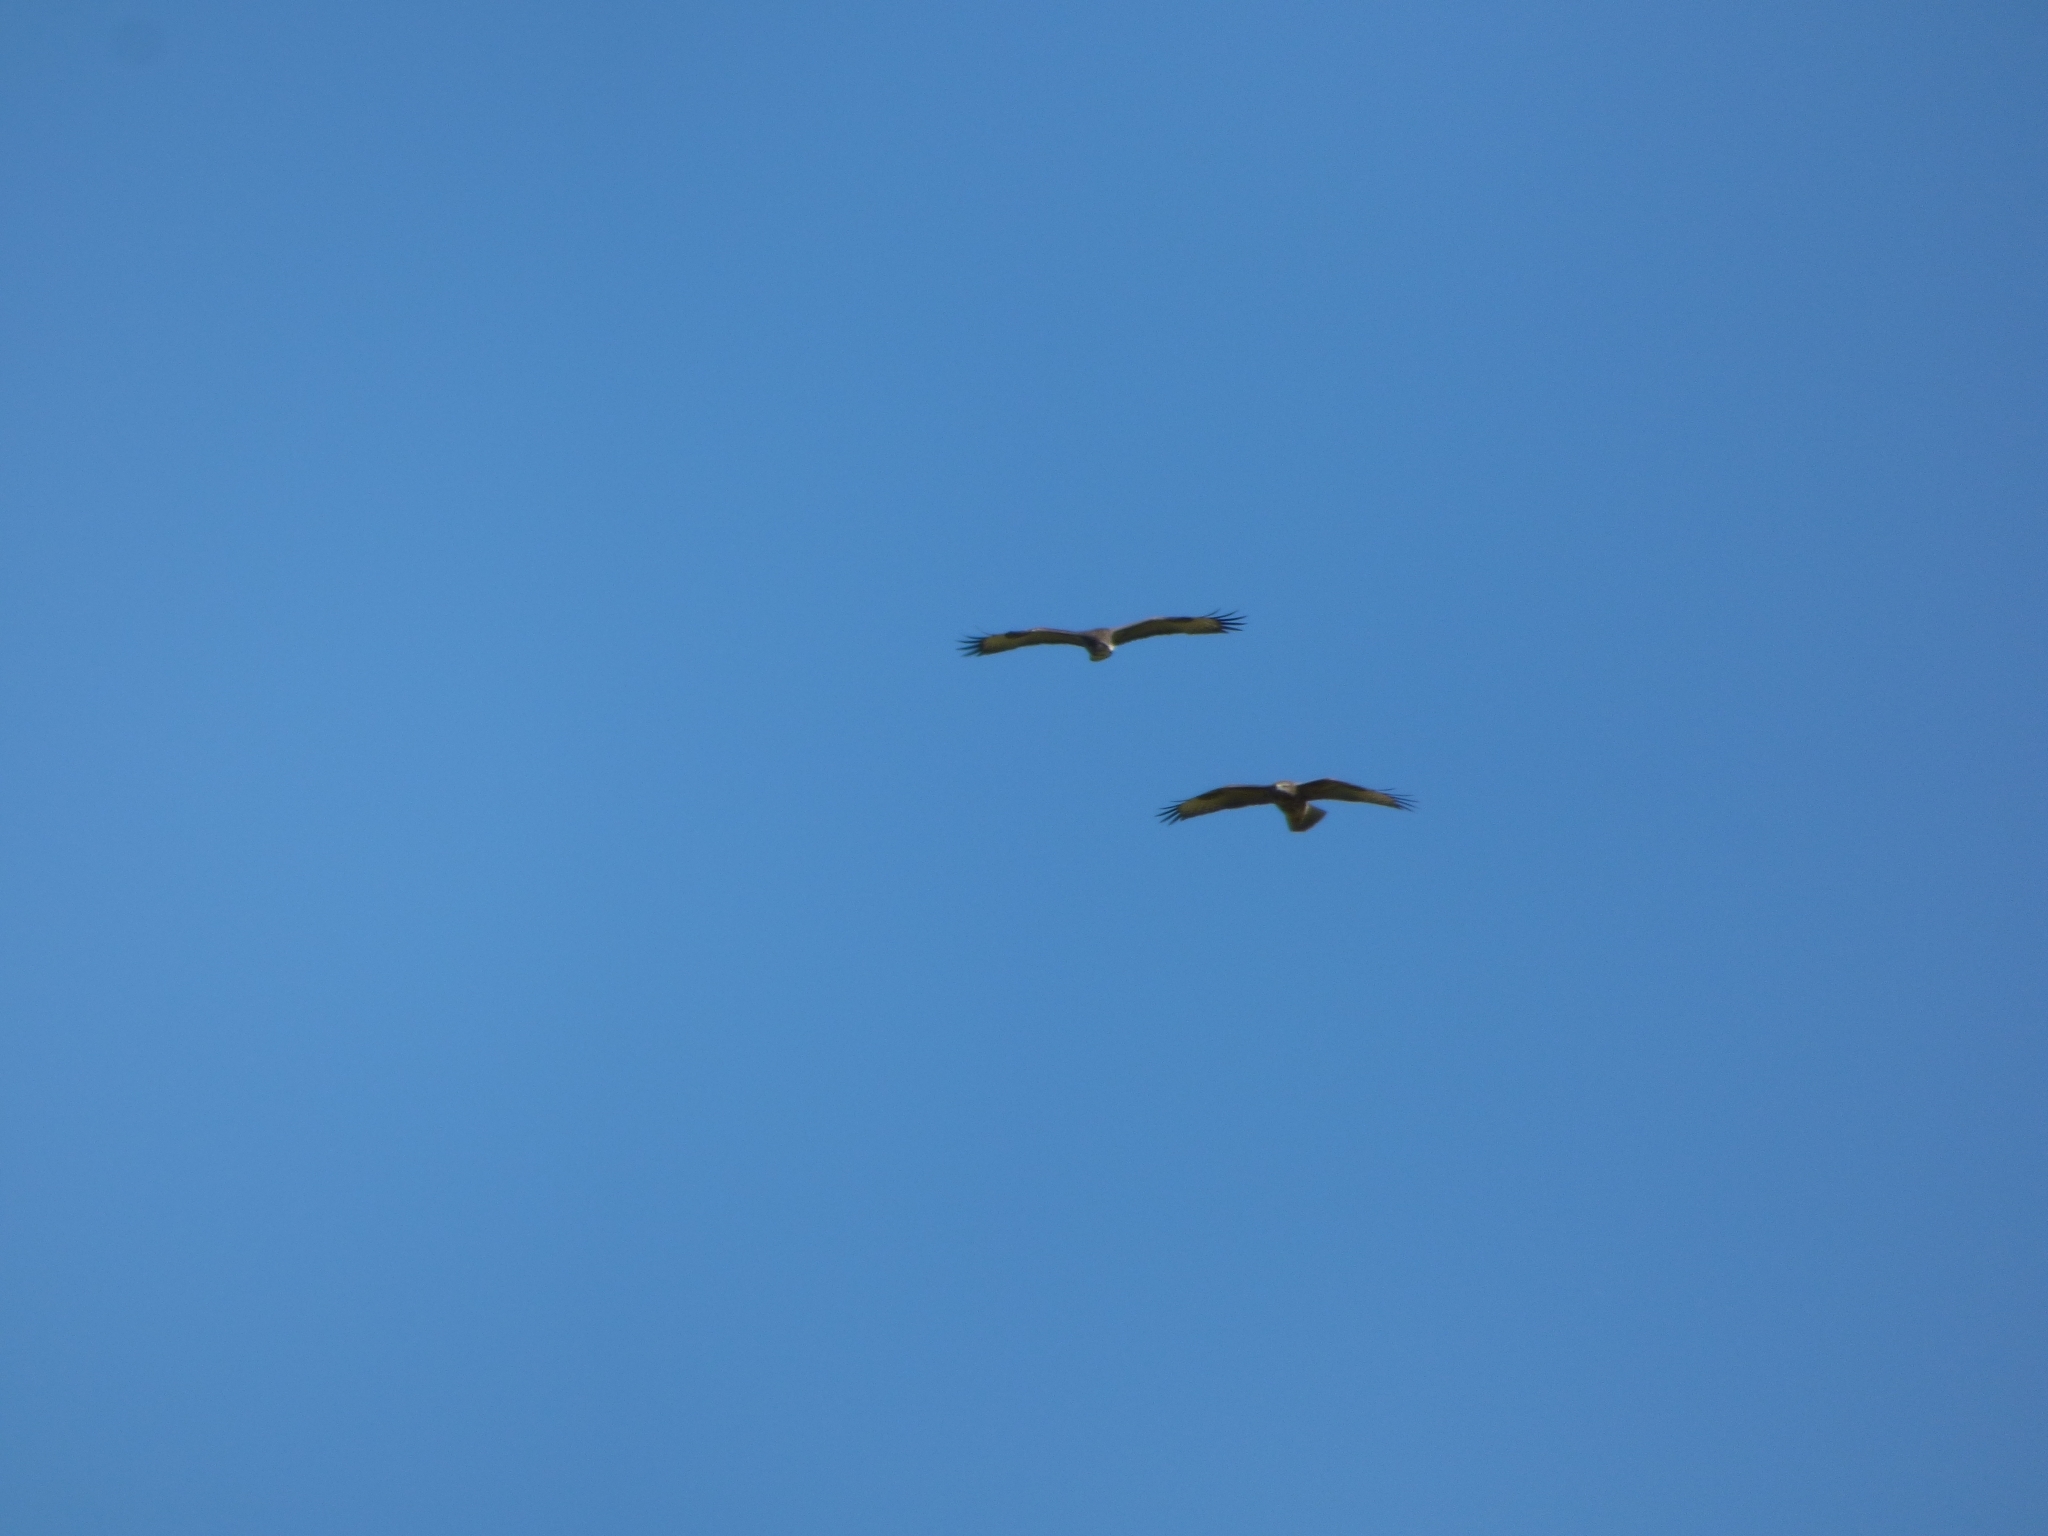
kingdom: Animalia
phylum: Chordata
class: Aves
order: Accipitriformes
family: Accipitridae
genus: Buteo
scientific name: Buteo buteo
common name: Common buzzard
